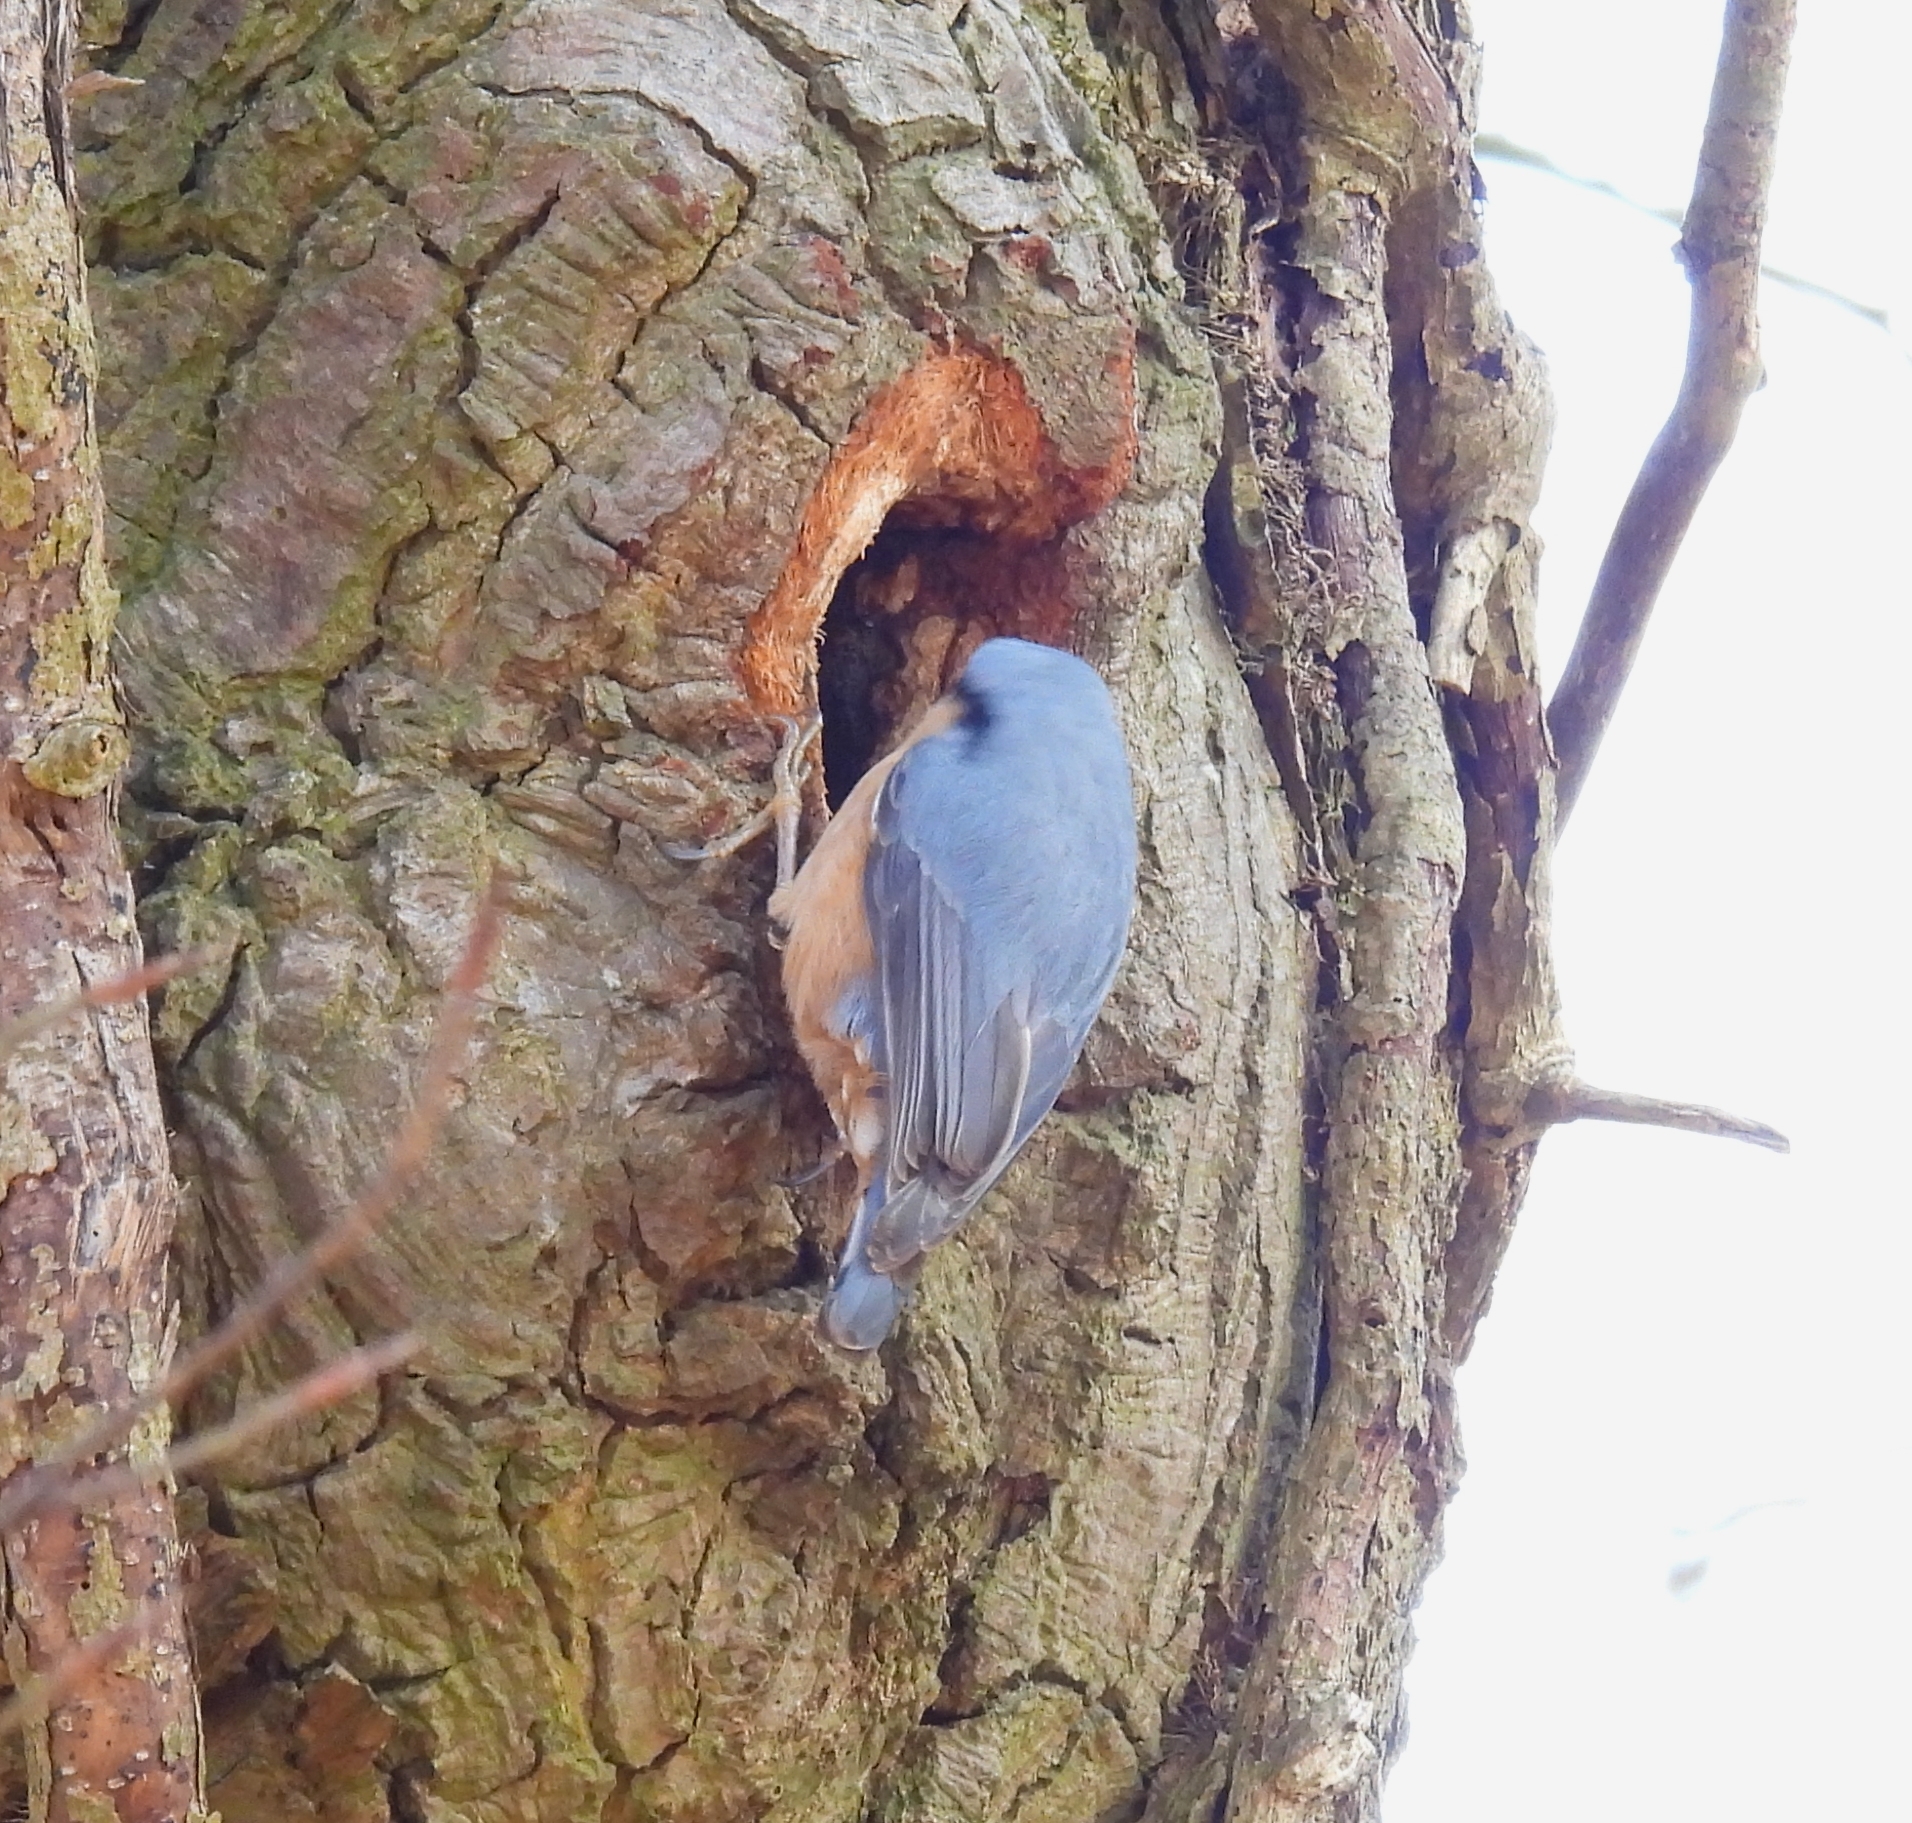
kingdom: Animalia
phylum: Chordata
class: Aves
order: Passeriformes
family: Sittidae
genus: Sitta
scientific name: Sitta europaea
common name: Eurasian nuthatch
